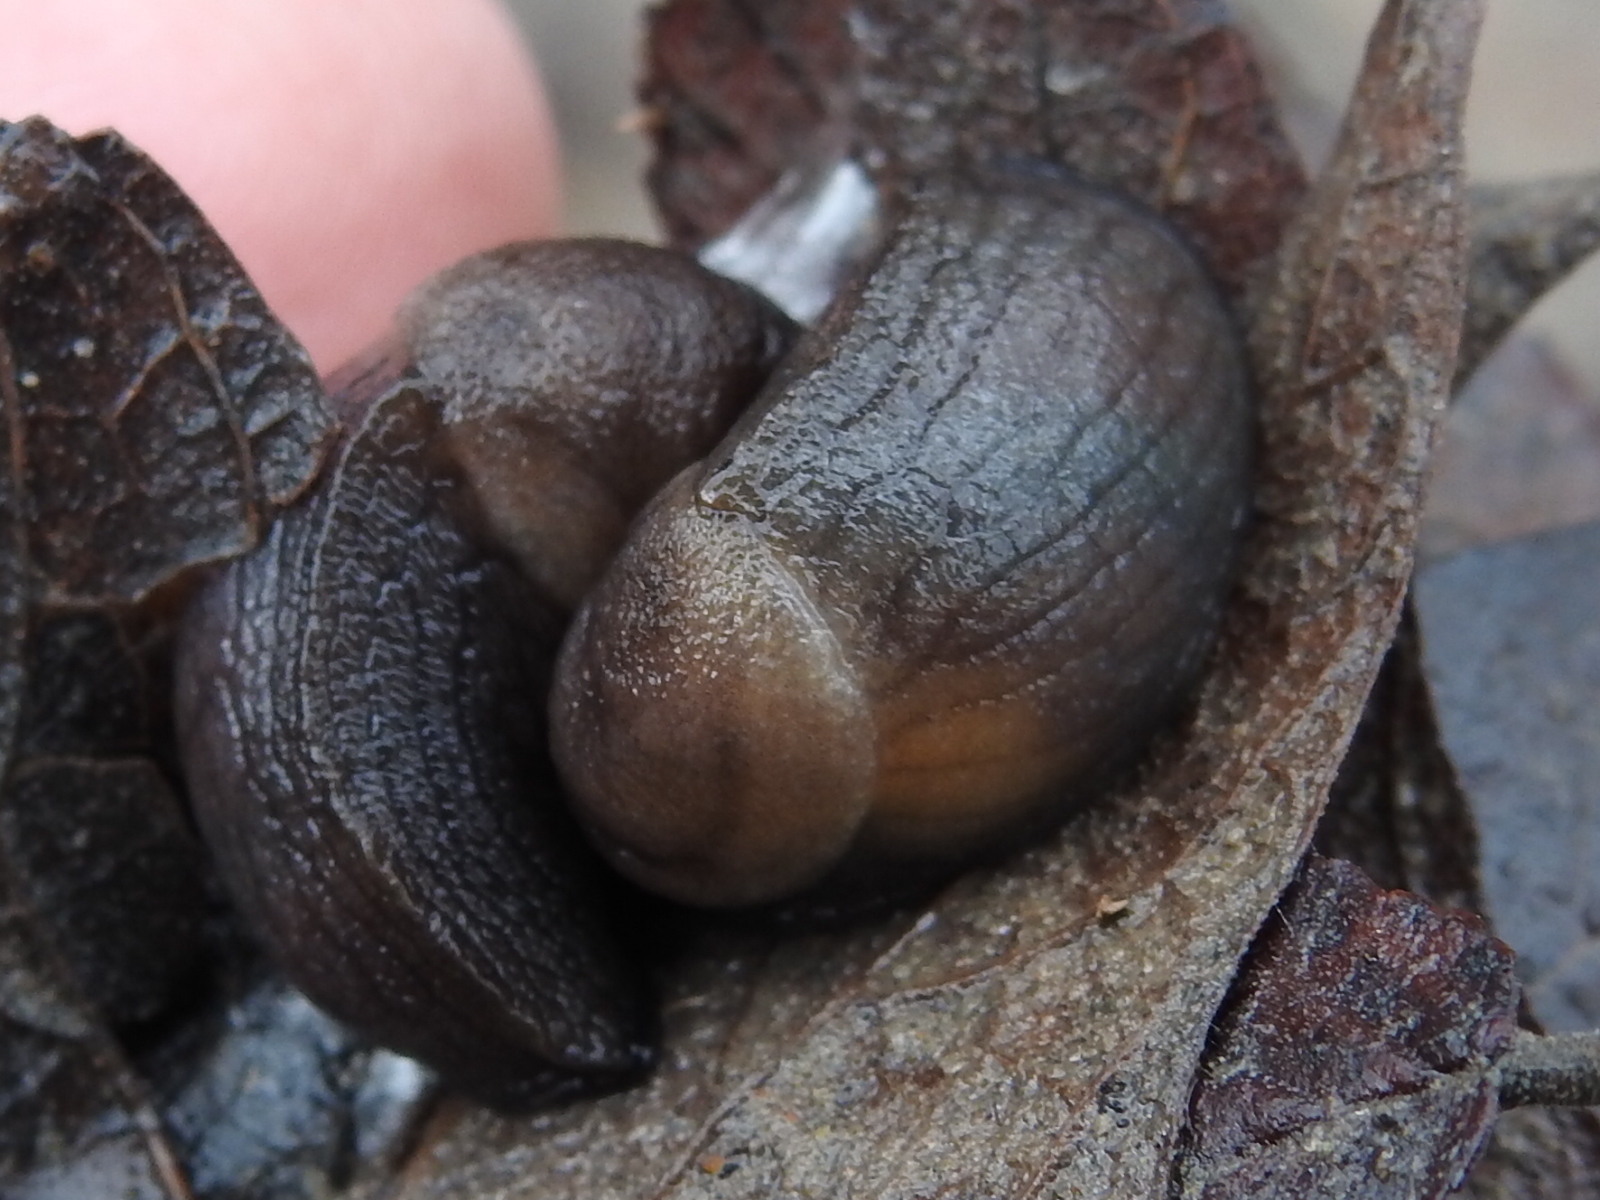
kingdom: Animalia
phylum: Mollusca
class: Gastropoda
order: Stylommatophora
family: Milacidae
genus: Milax
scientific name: Milax gagates
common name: Greenhouse slug
